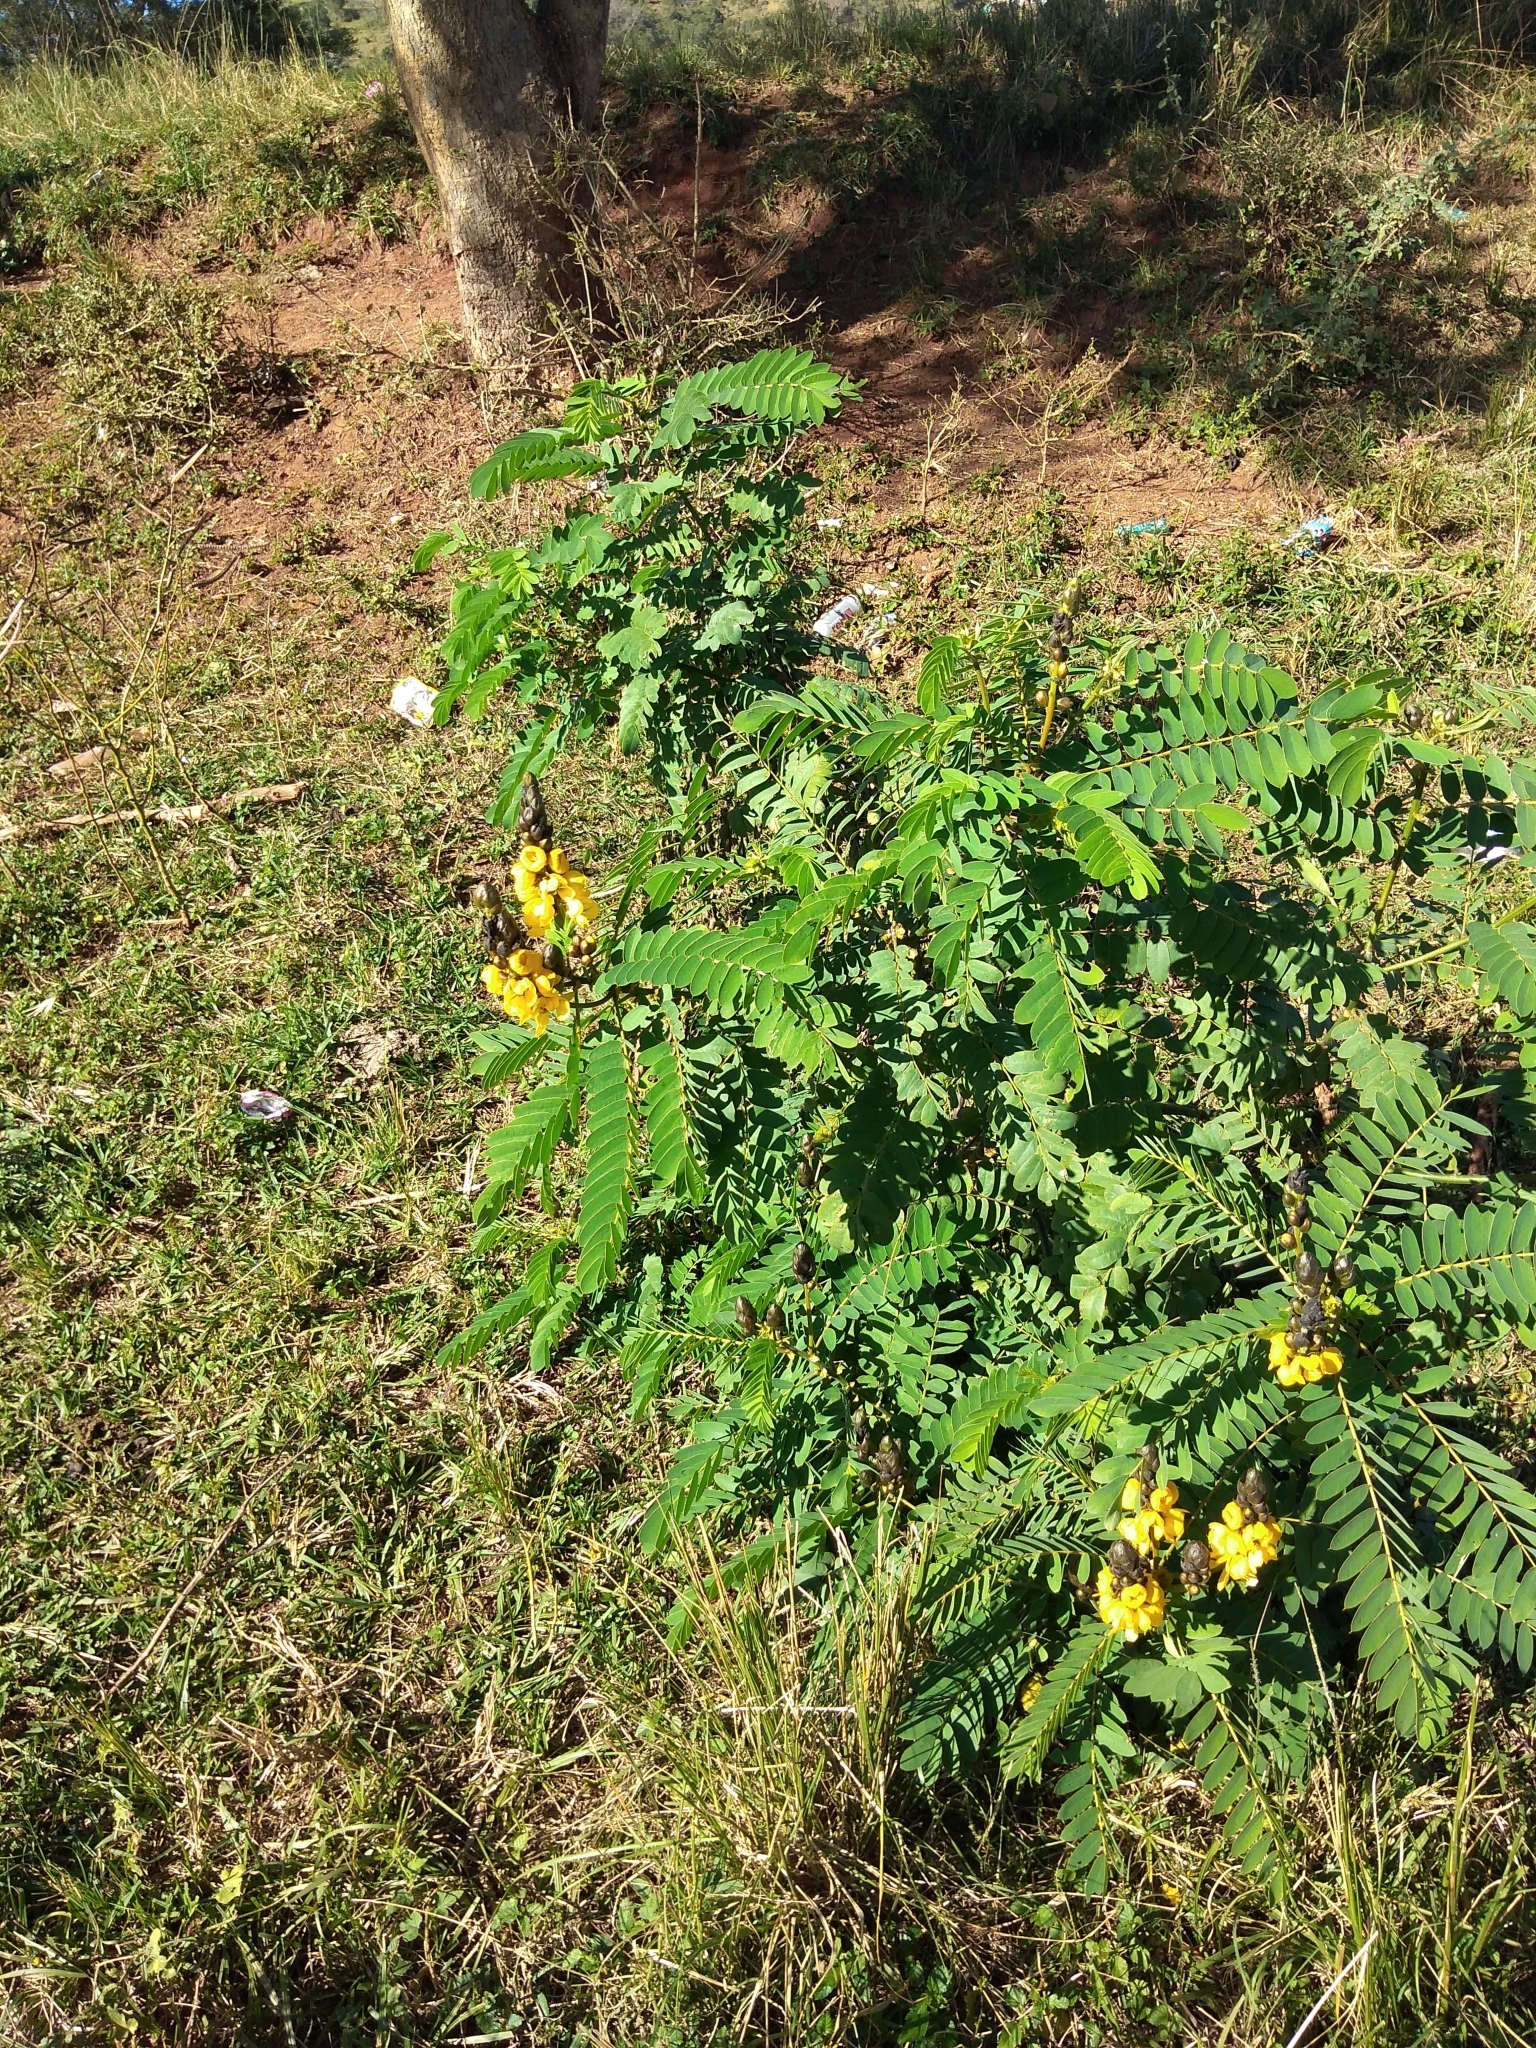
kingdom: Plantae
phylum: Tracheophyta
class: Magnoliopsida
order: Fabales
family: Fabaceae
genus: Senna
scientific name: Senna didymobotrya
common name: African senna
